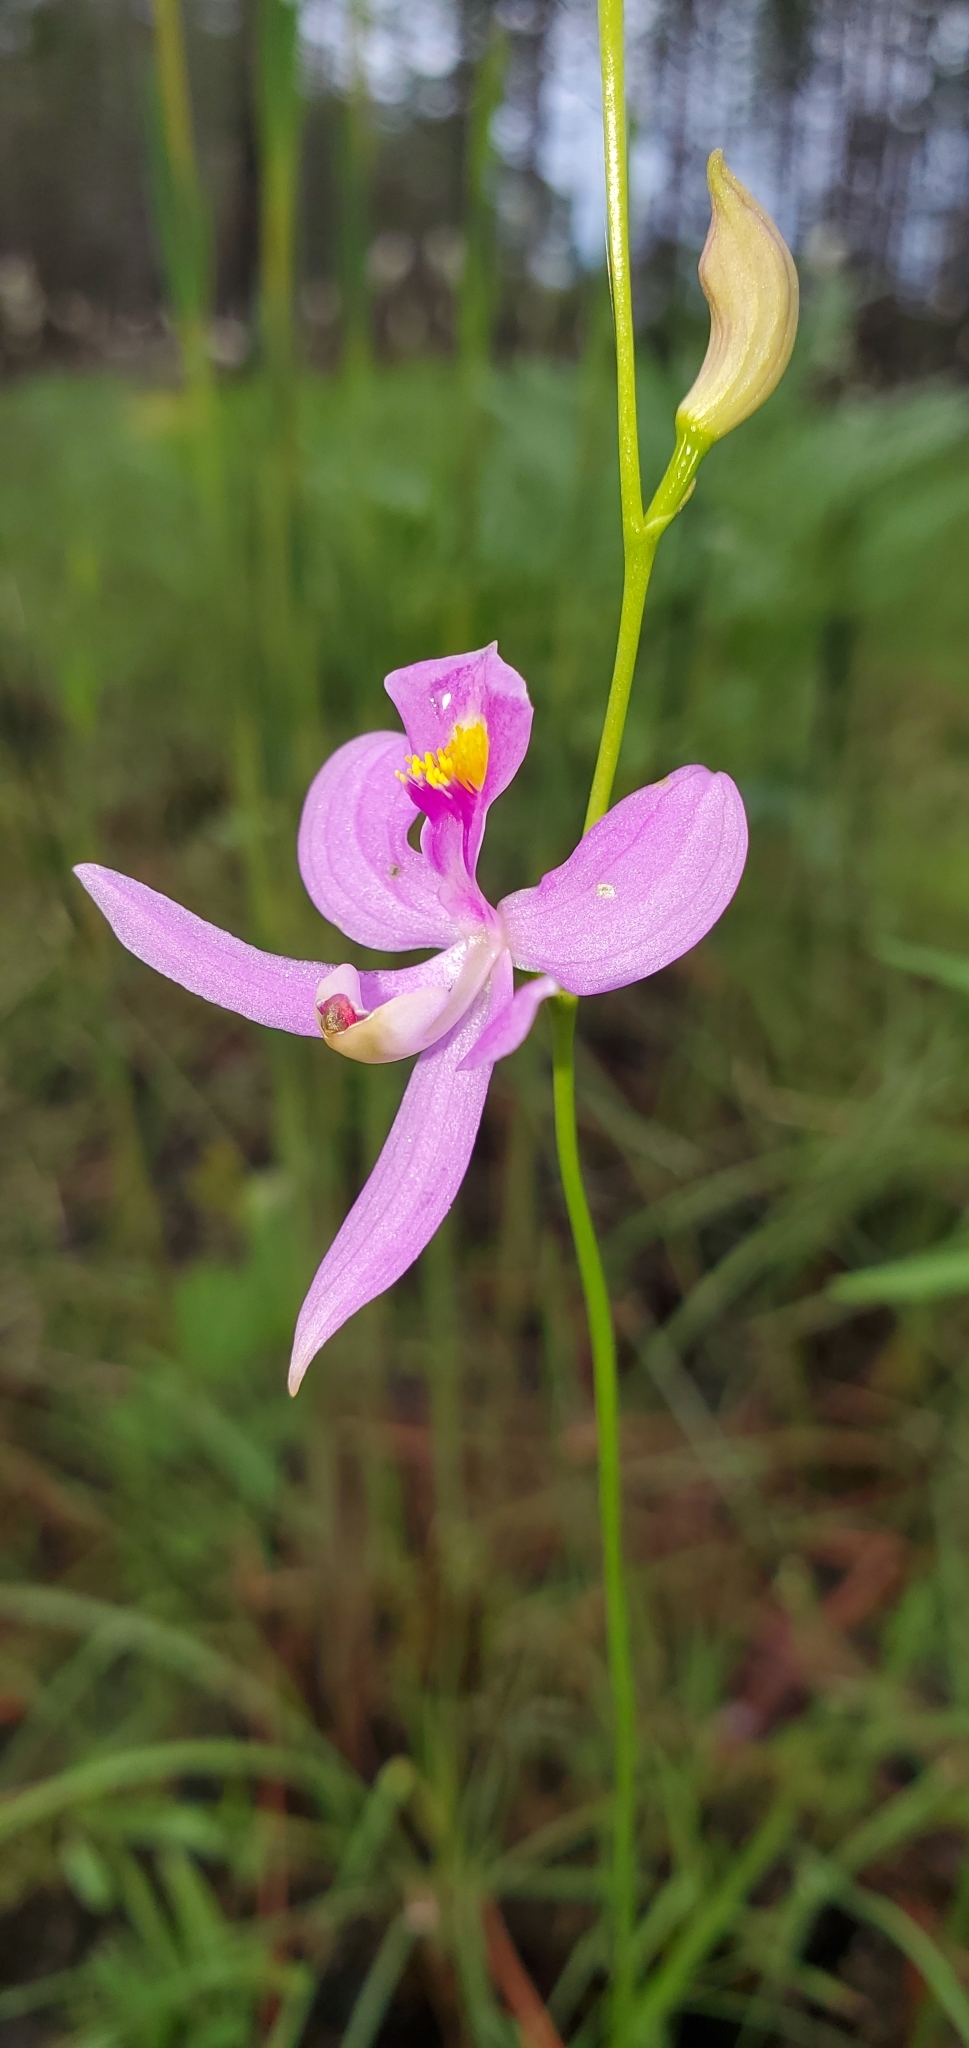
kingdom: Plantae
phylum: Tracheophyta
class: Liliopsida
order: Asparagales
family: Orchidaceae
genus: Calopogon
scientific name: Calopogon pallidus
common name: Pale grasspink
